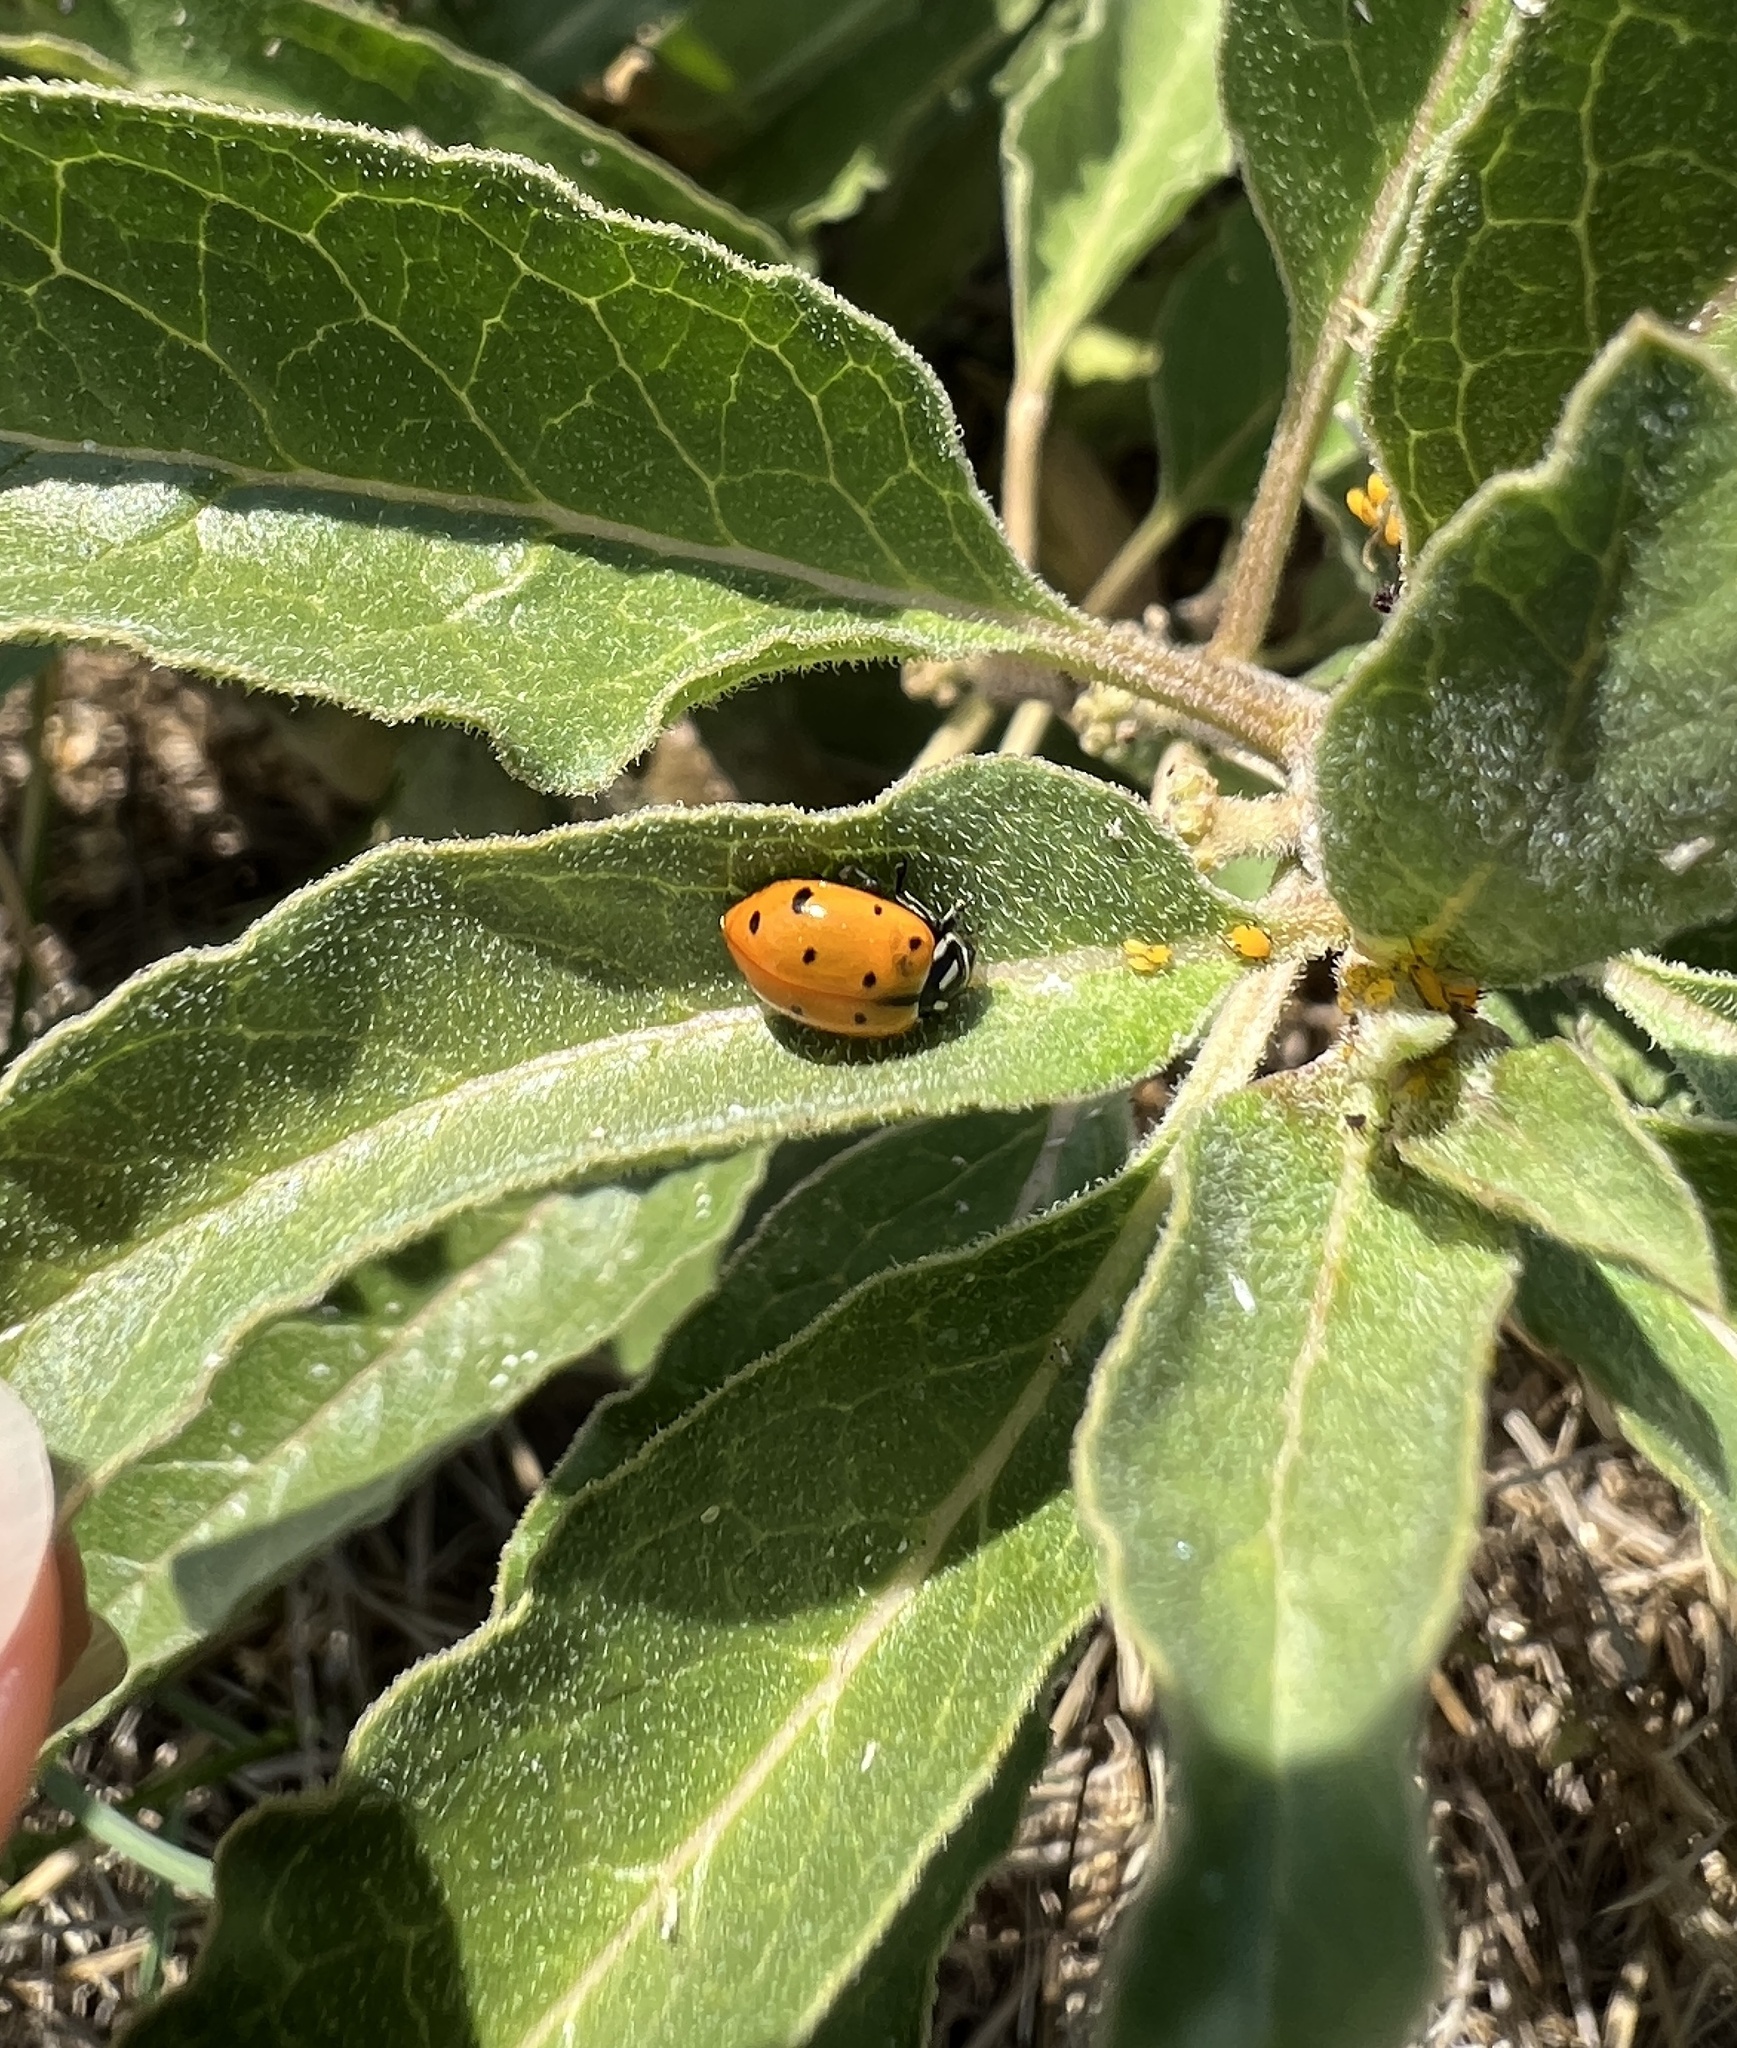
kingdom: Animalia
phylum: Arthropoda
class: Insecta
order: Coleoptera
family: Coccinellidae
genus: Hippodamia
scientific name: Hippodamia convergens
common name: Convergent lady beetle
